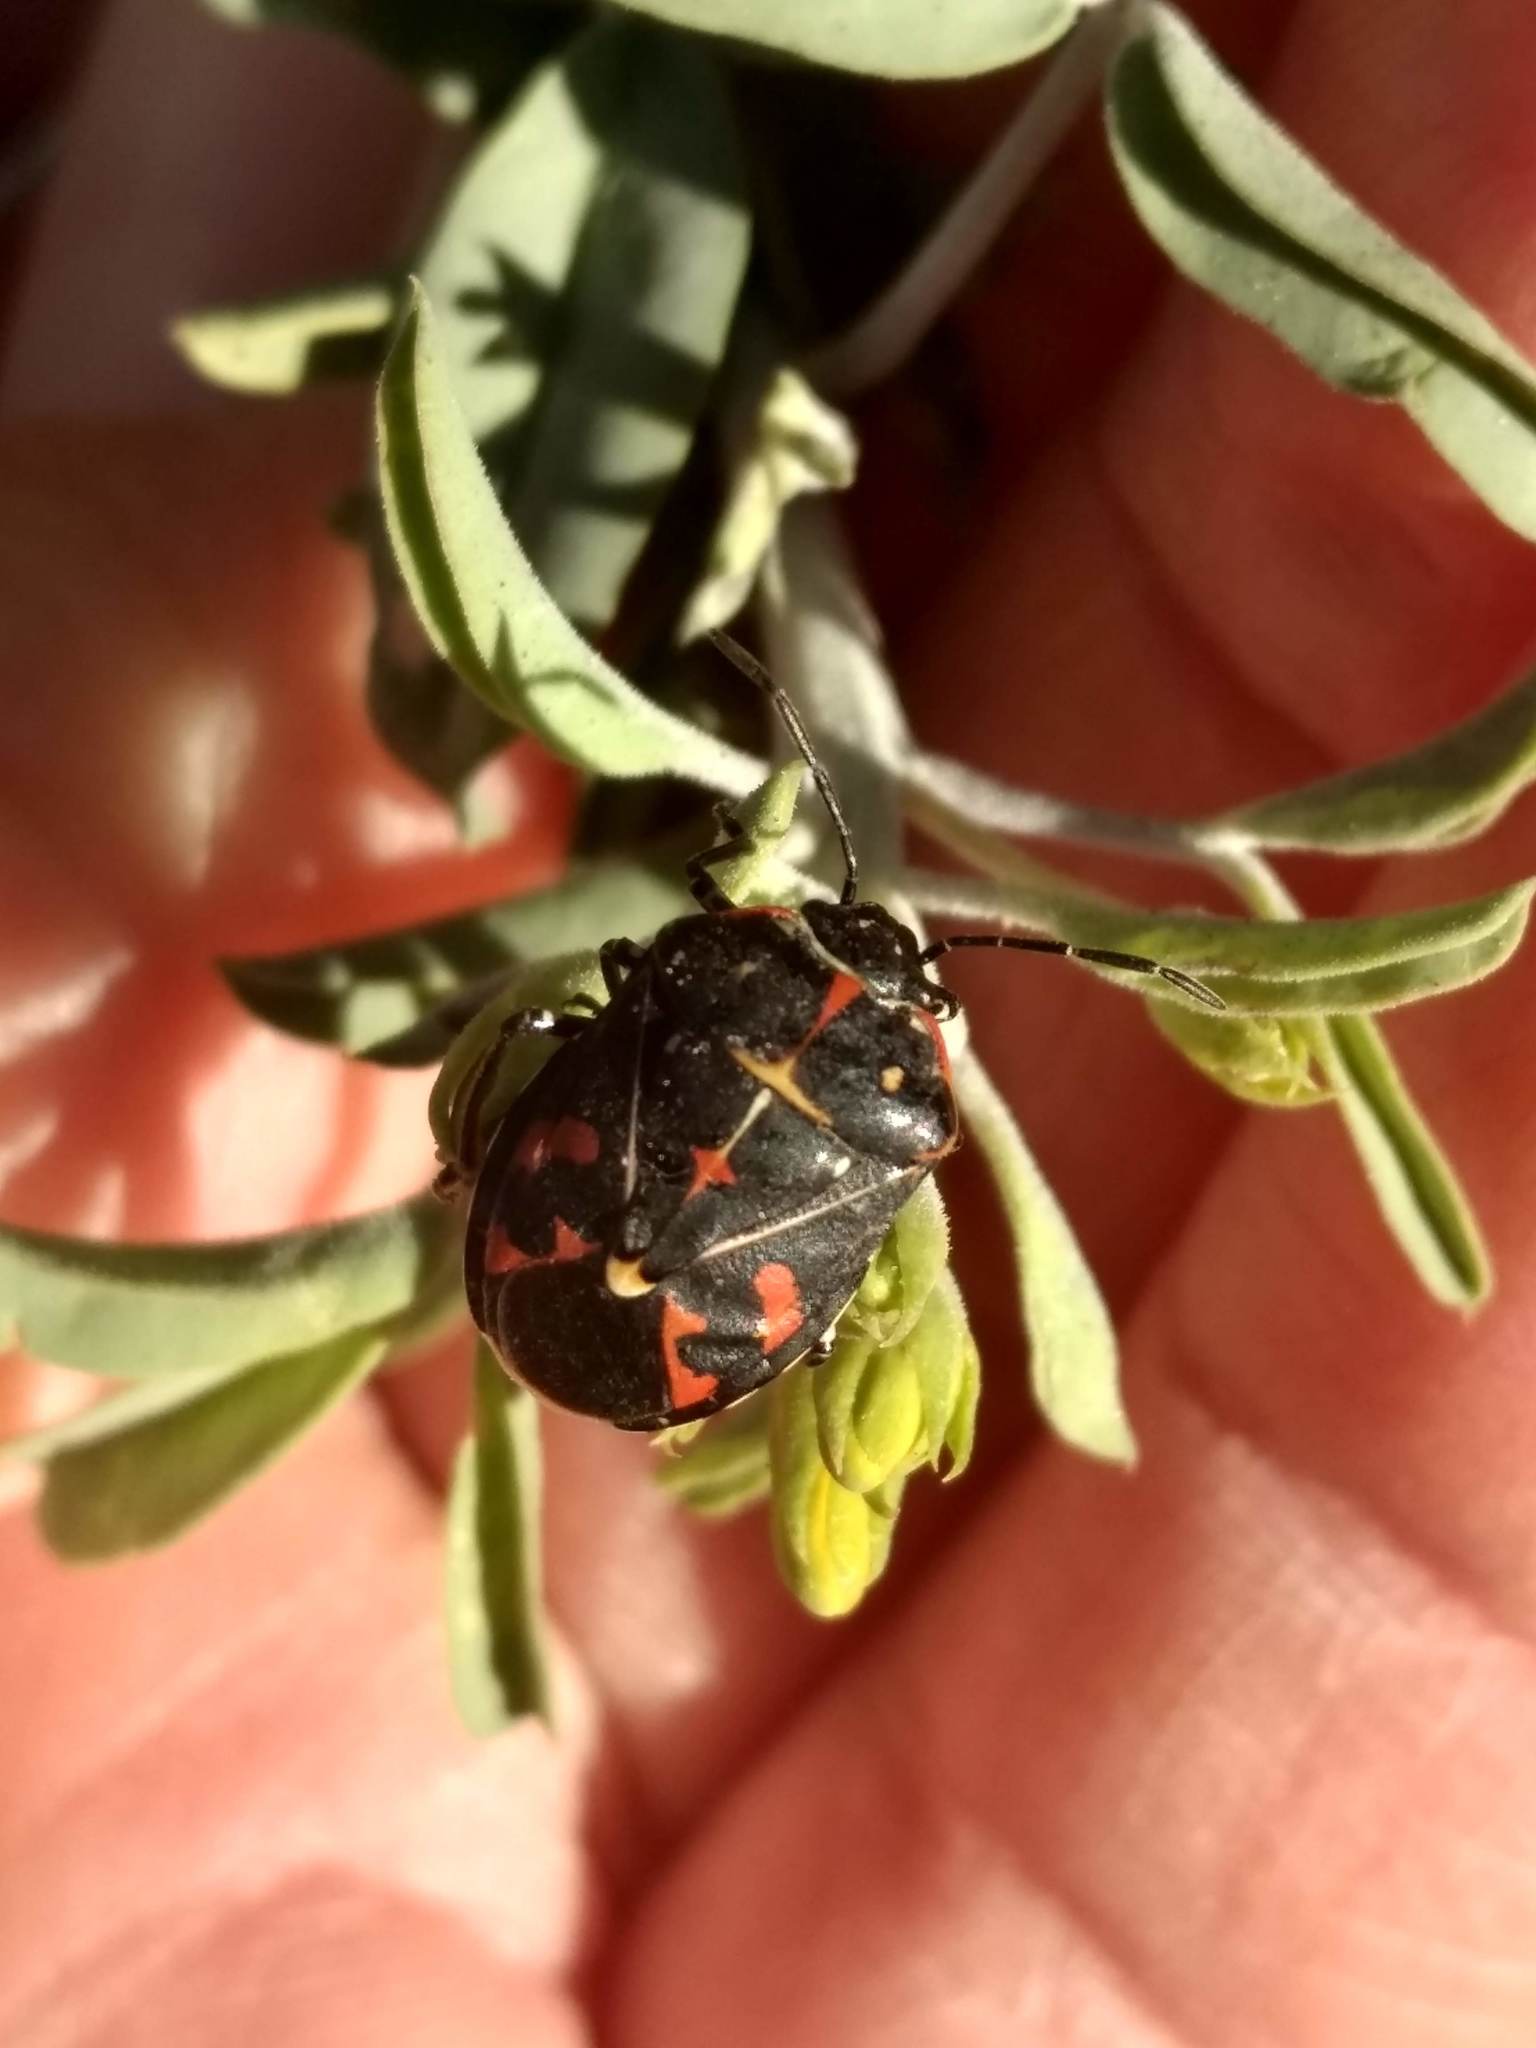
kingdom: Animalia
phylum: Arthropoda
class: Insecta
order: Hemiptera
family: Pentatomidae
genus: Murgantia
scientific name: Murgantia histrionica
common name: Harlequin bug
